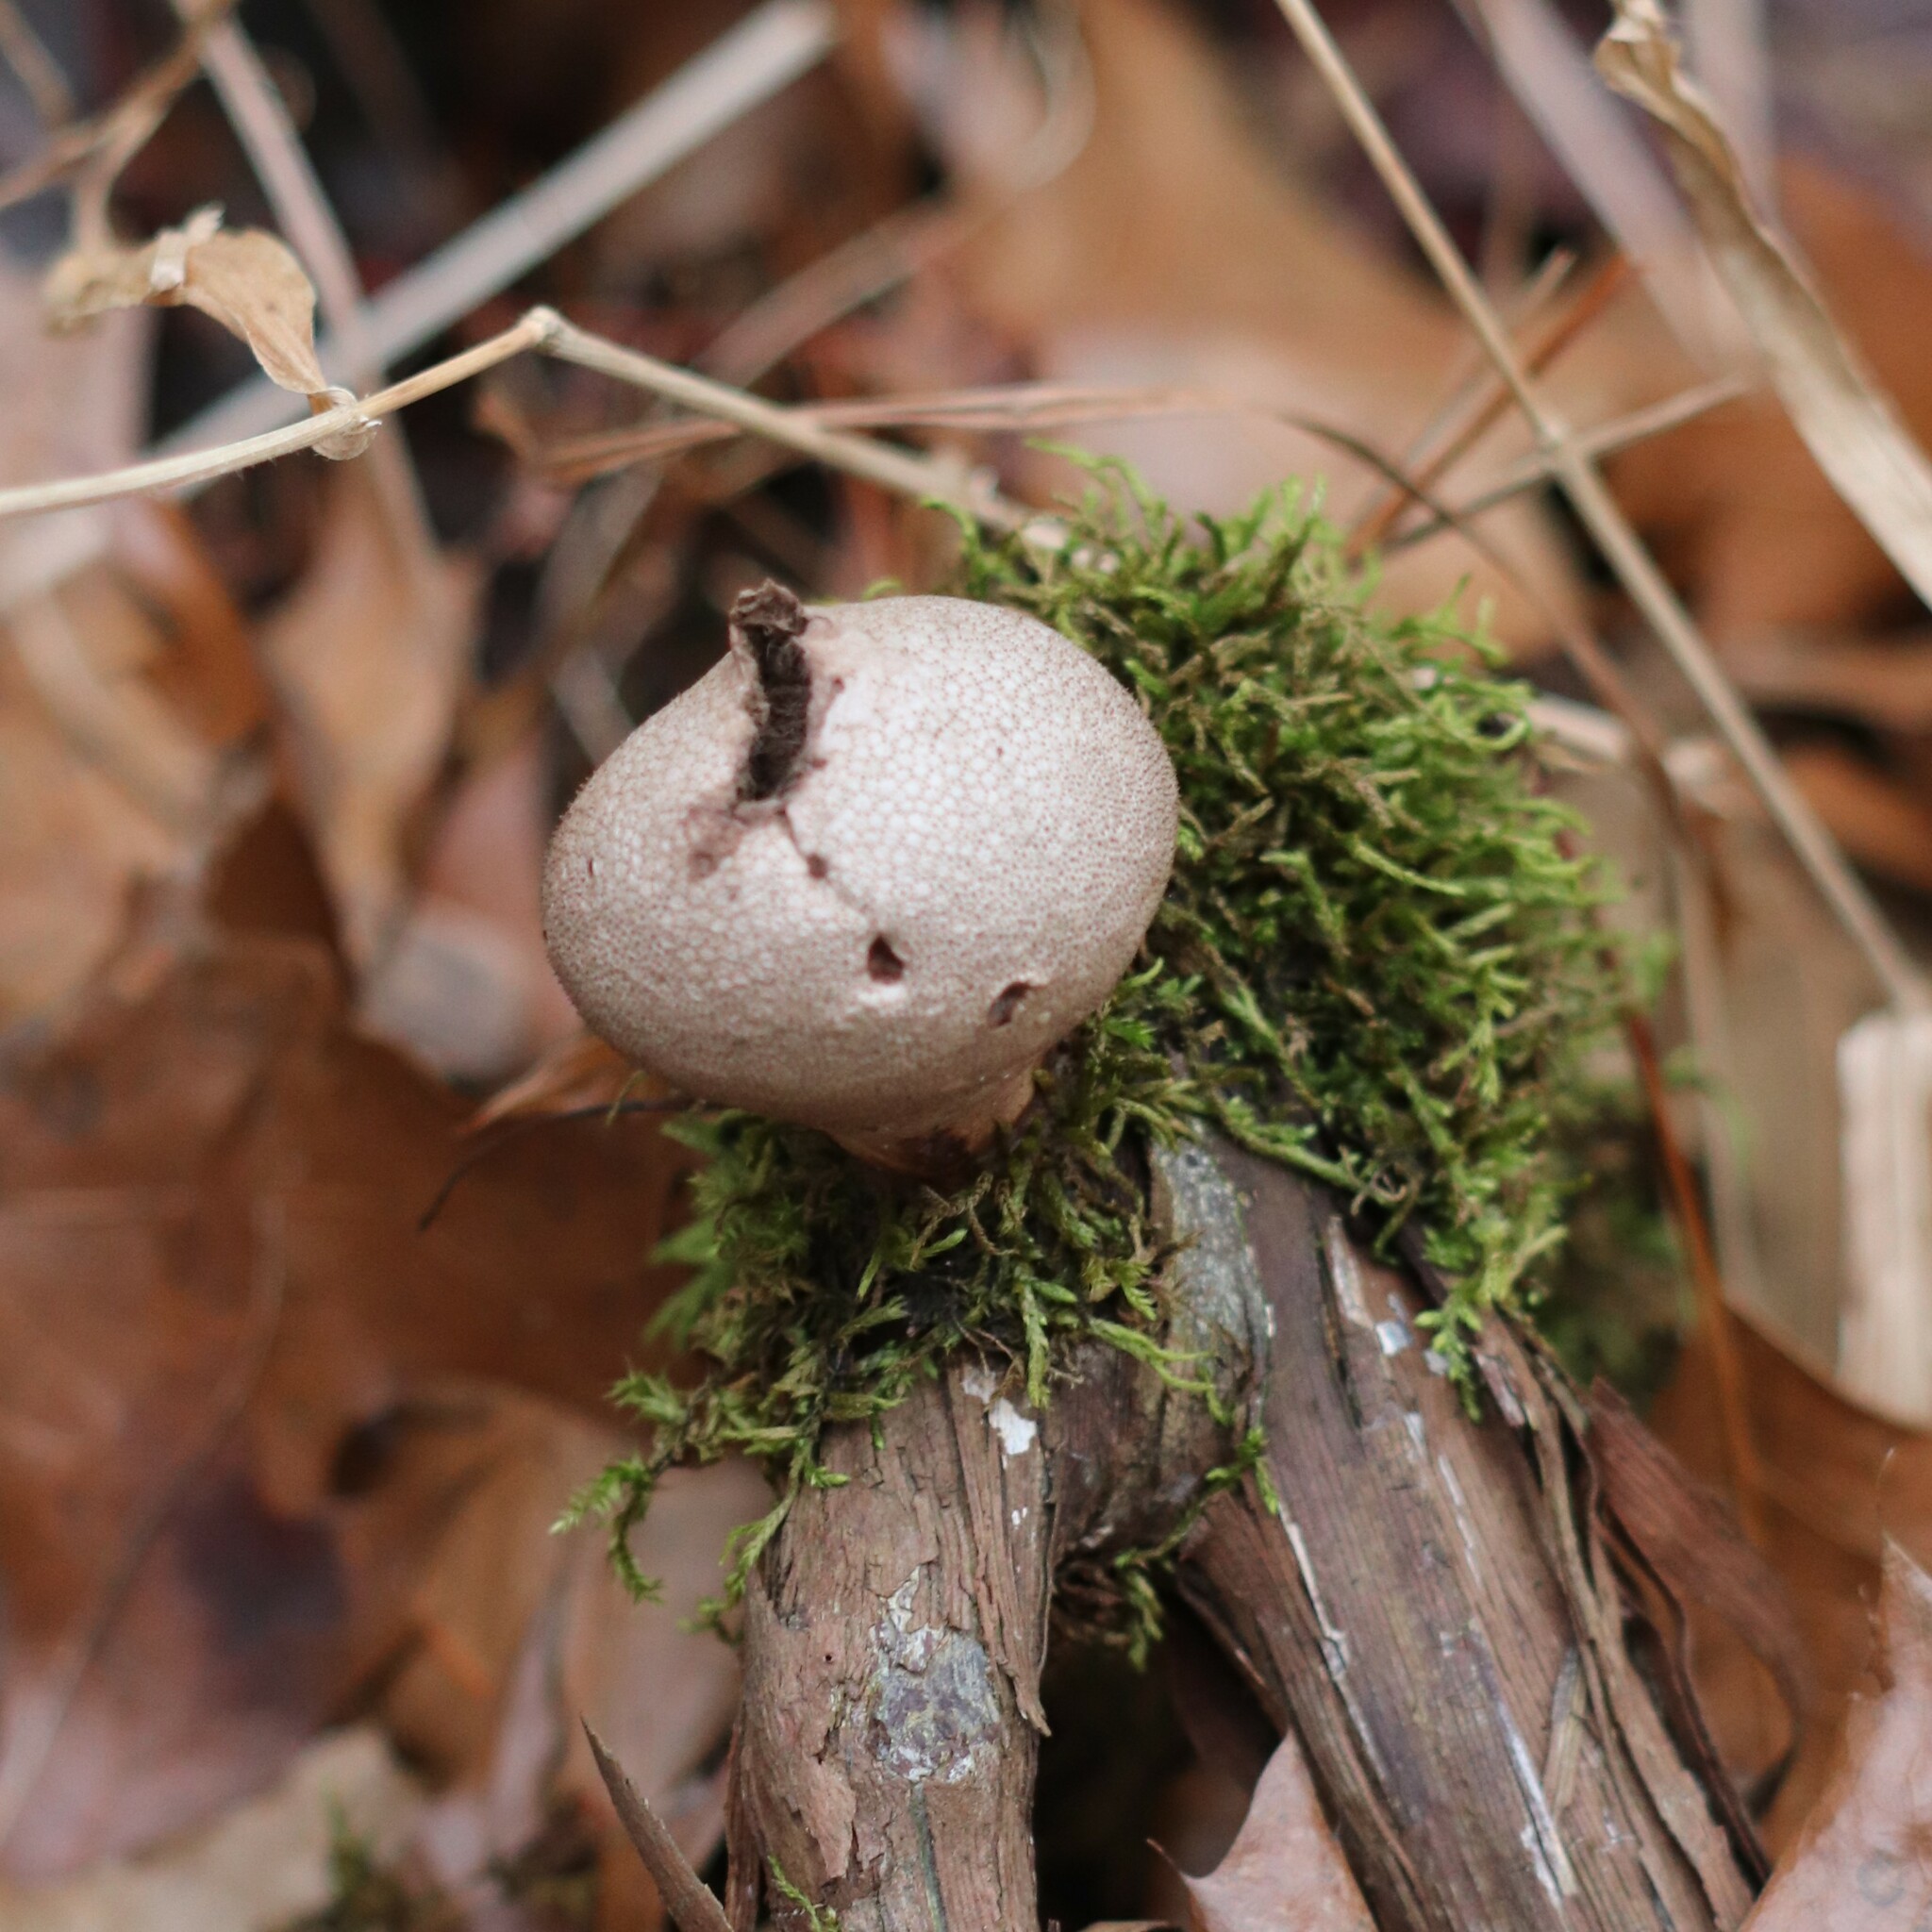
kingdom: Fungi
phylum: Basidiomycota
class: Agaricomycetes
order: Agaricales
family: Lycoperdaceae
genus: Apioperdon
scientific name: Apioperdon pyriforme
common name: Pear-shaped puffball
